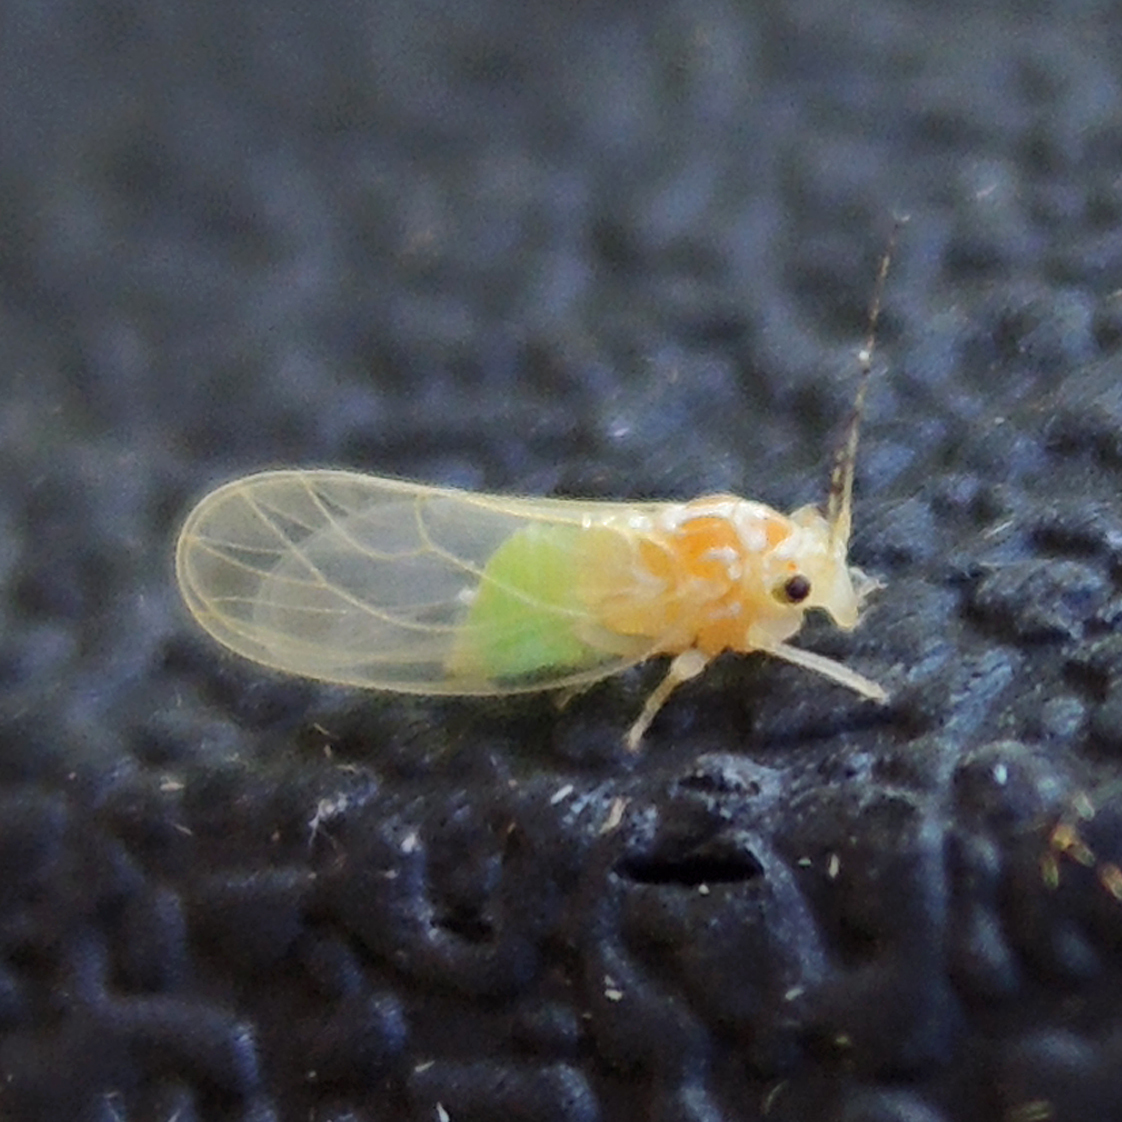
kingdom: Animalia
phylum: Arthropoda
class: Insecta
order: Hemiptera
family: Psyllidae
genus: Cacopsylla
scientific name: Cacopsylla annulata
